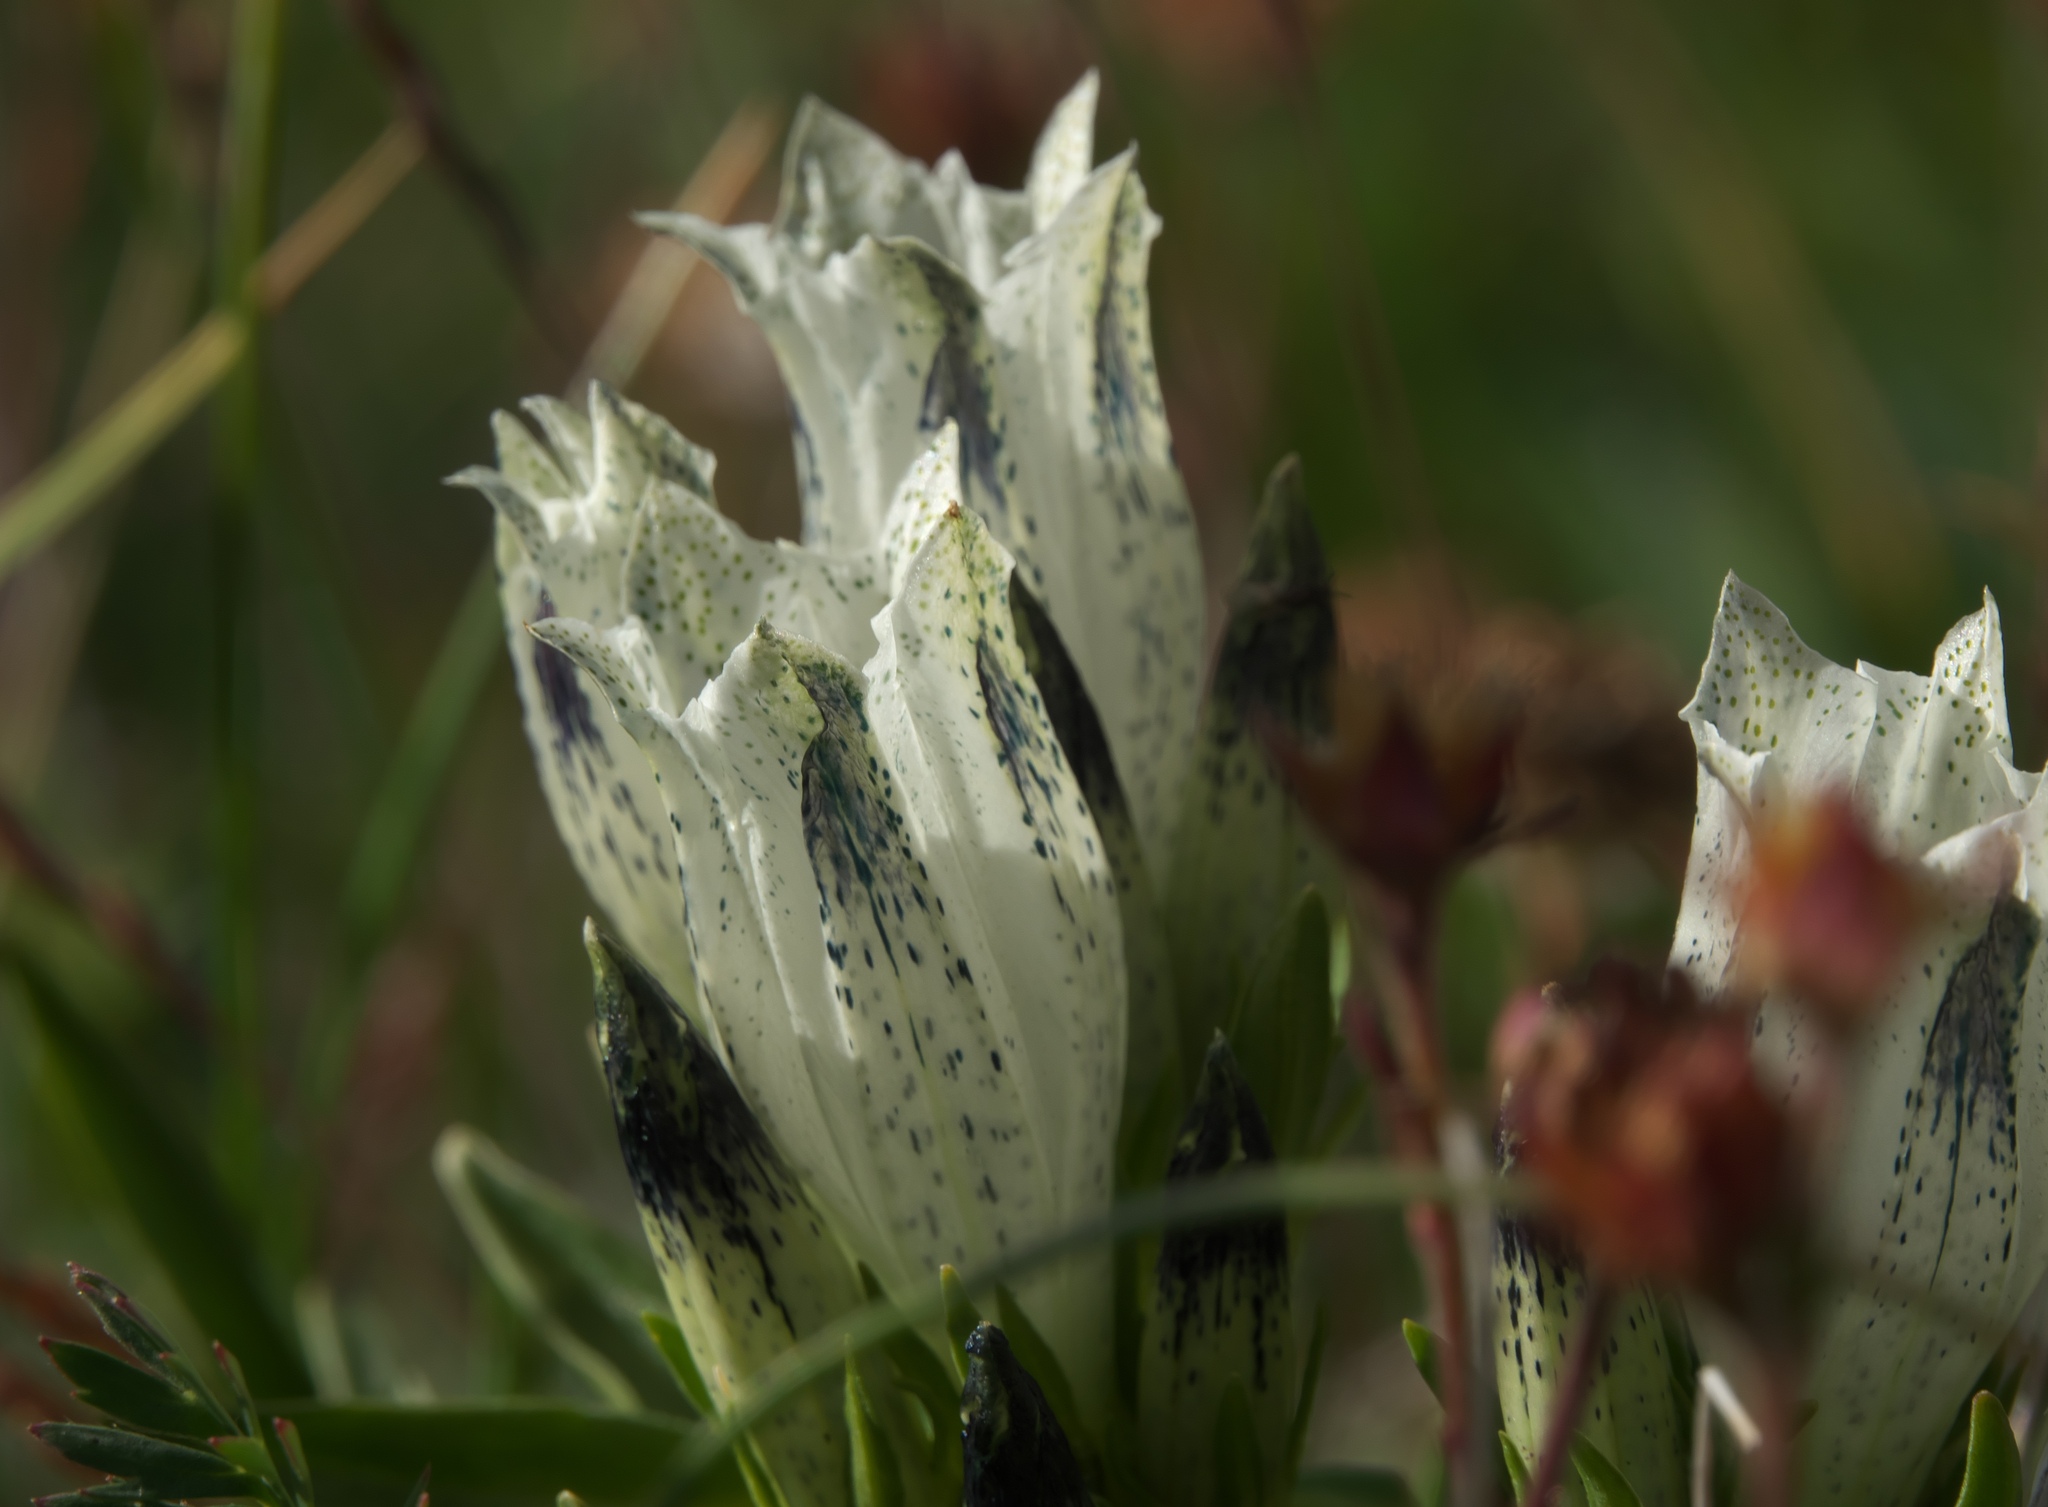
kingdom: Plantae
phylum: Tracheophyta
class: Magnoliopsida
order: Gentianales
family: Gentianaceae
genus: Gentiana
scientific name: Gentiana algida
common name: Arctic gentian
